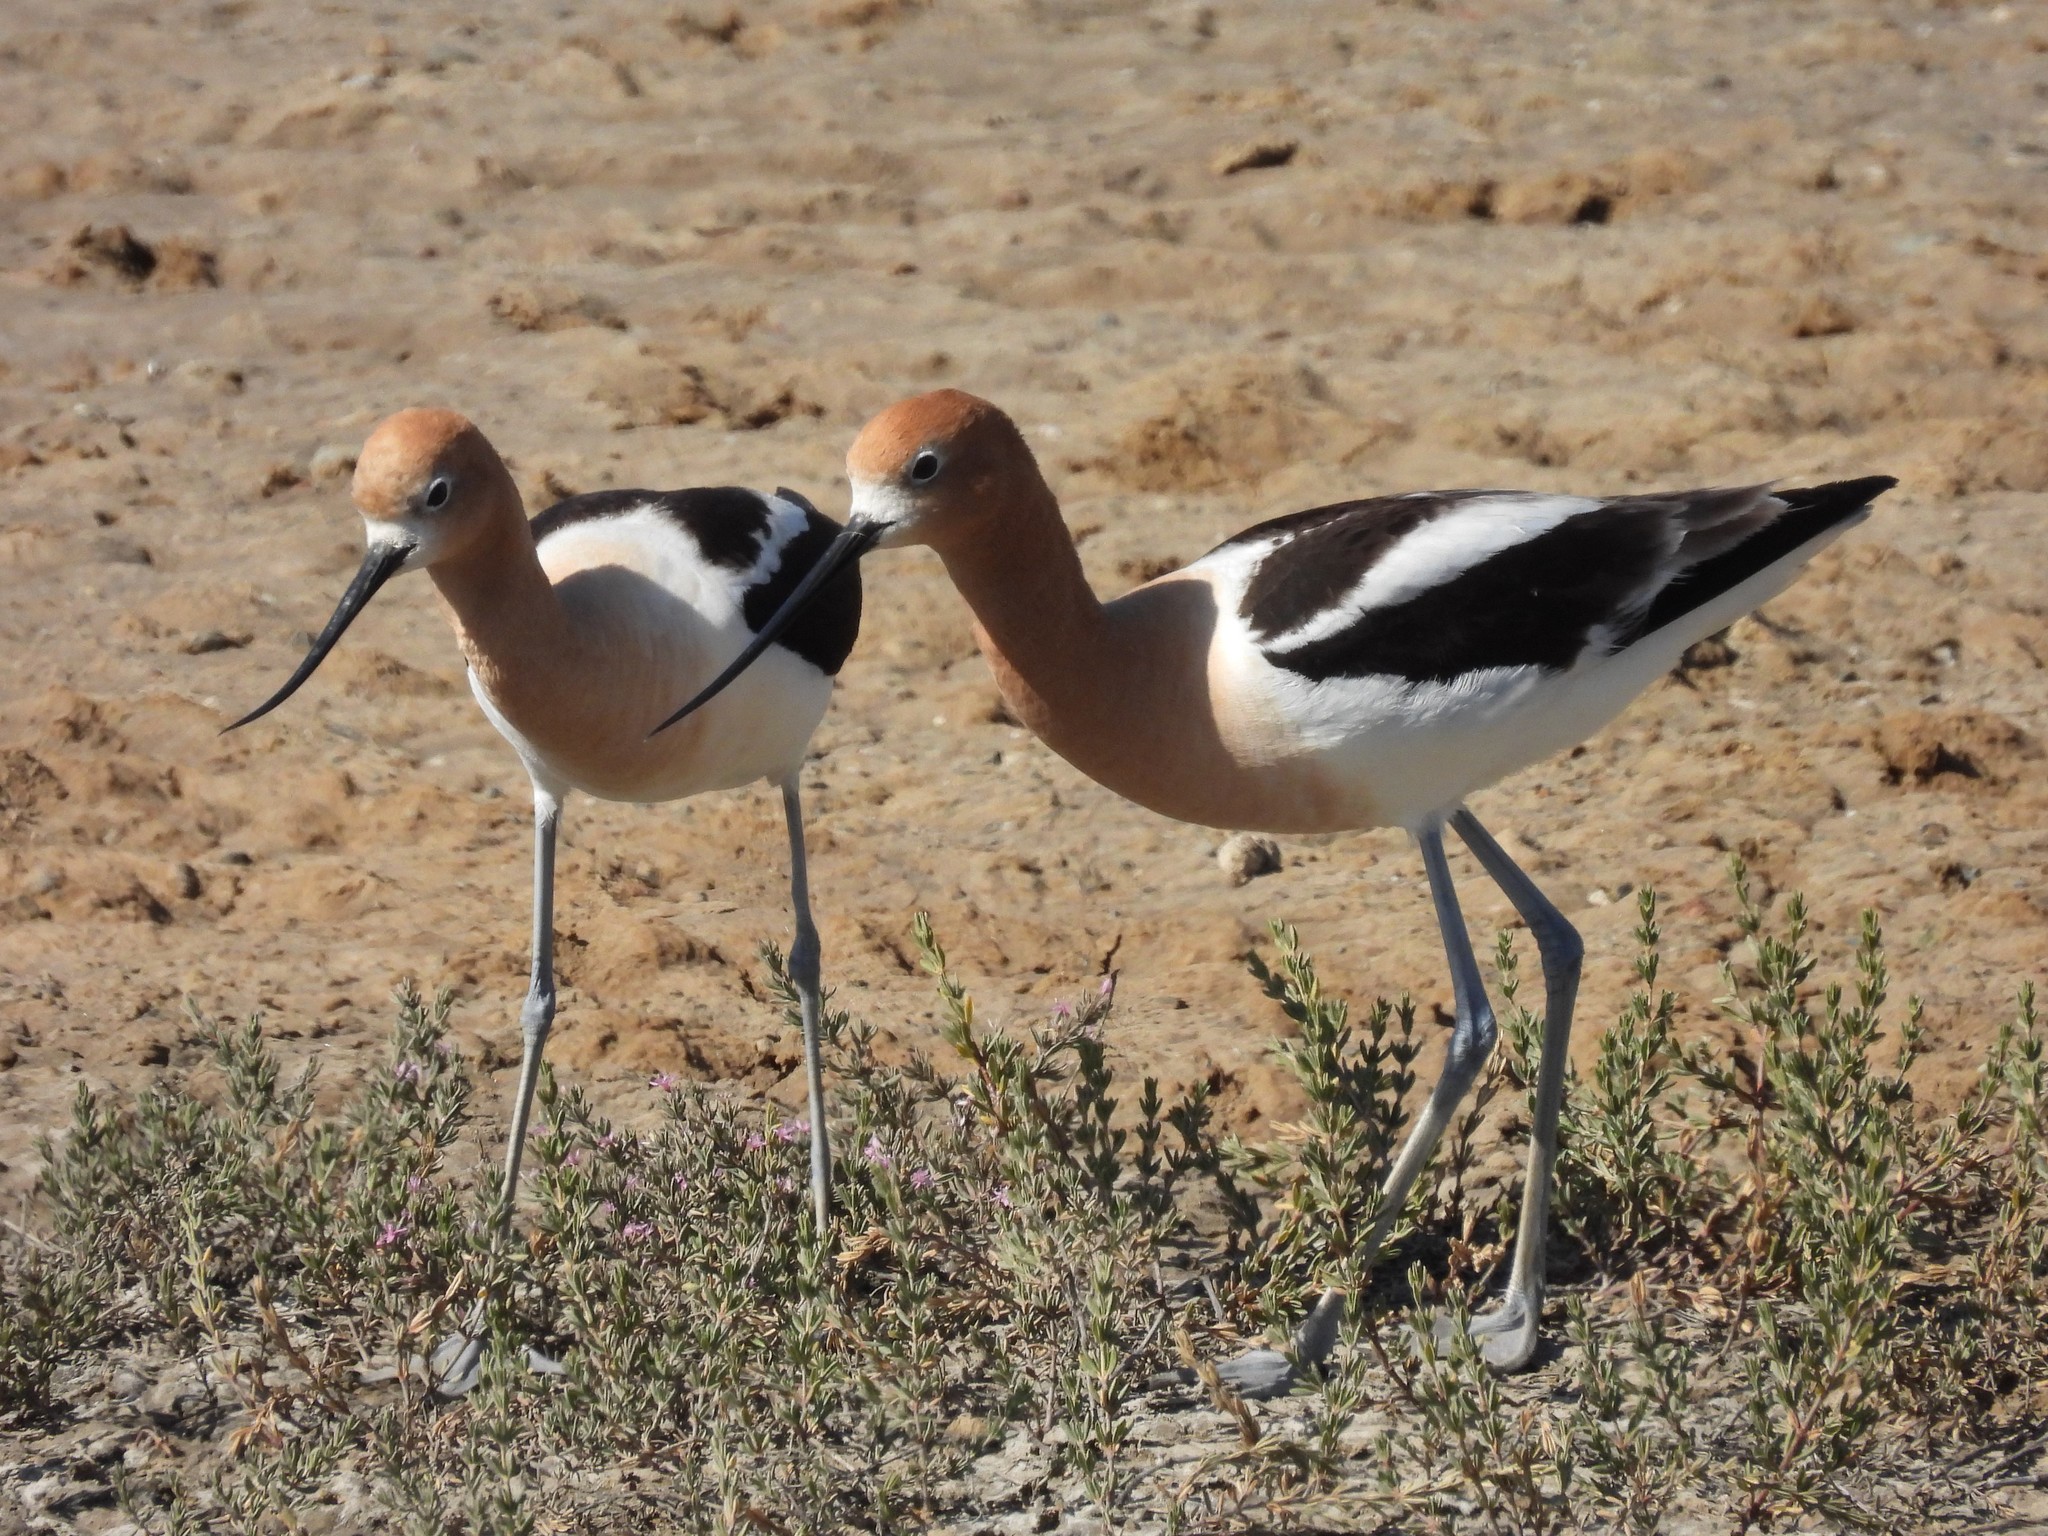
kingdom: Animalia
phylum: Chordata
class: Aves
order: Charadriiformes
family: Recurvirostridae
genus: Recurvirostra
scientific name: Recurvirostra americana
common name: American avocet
